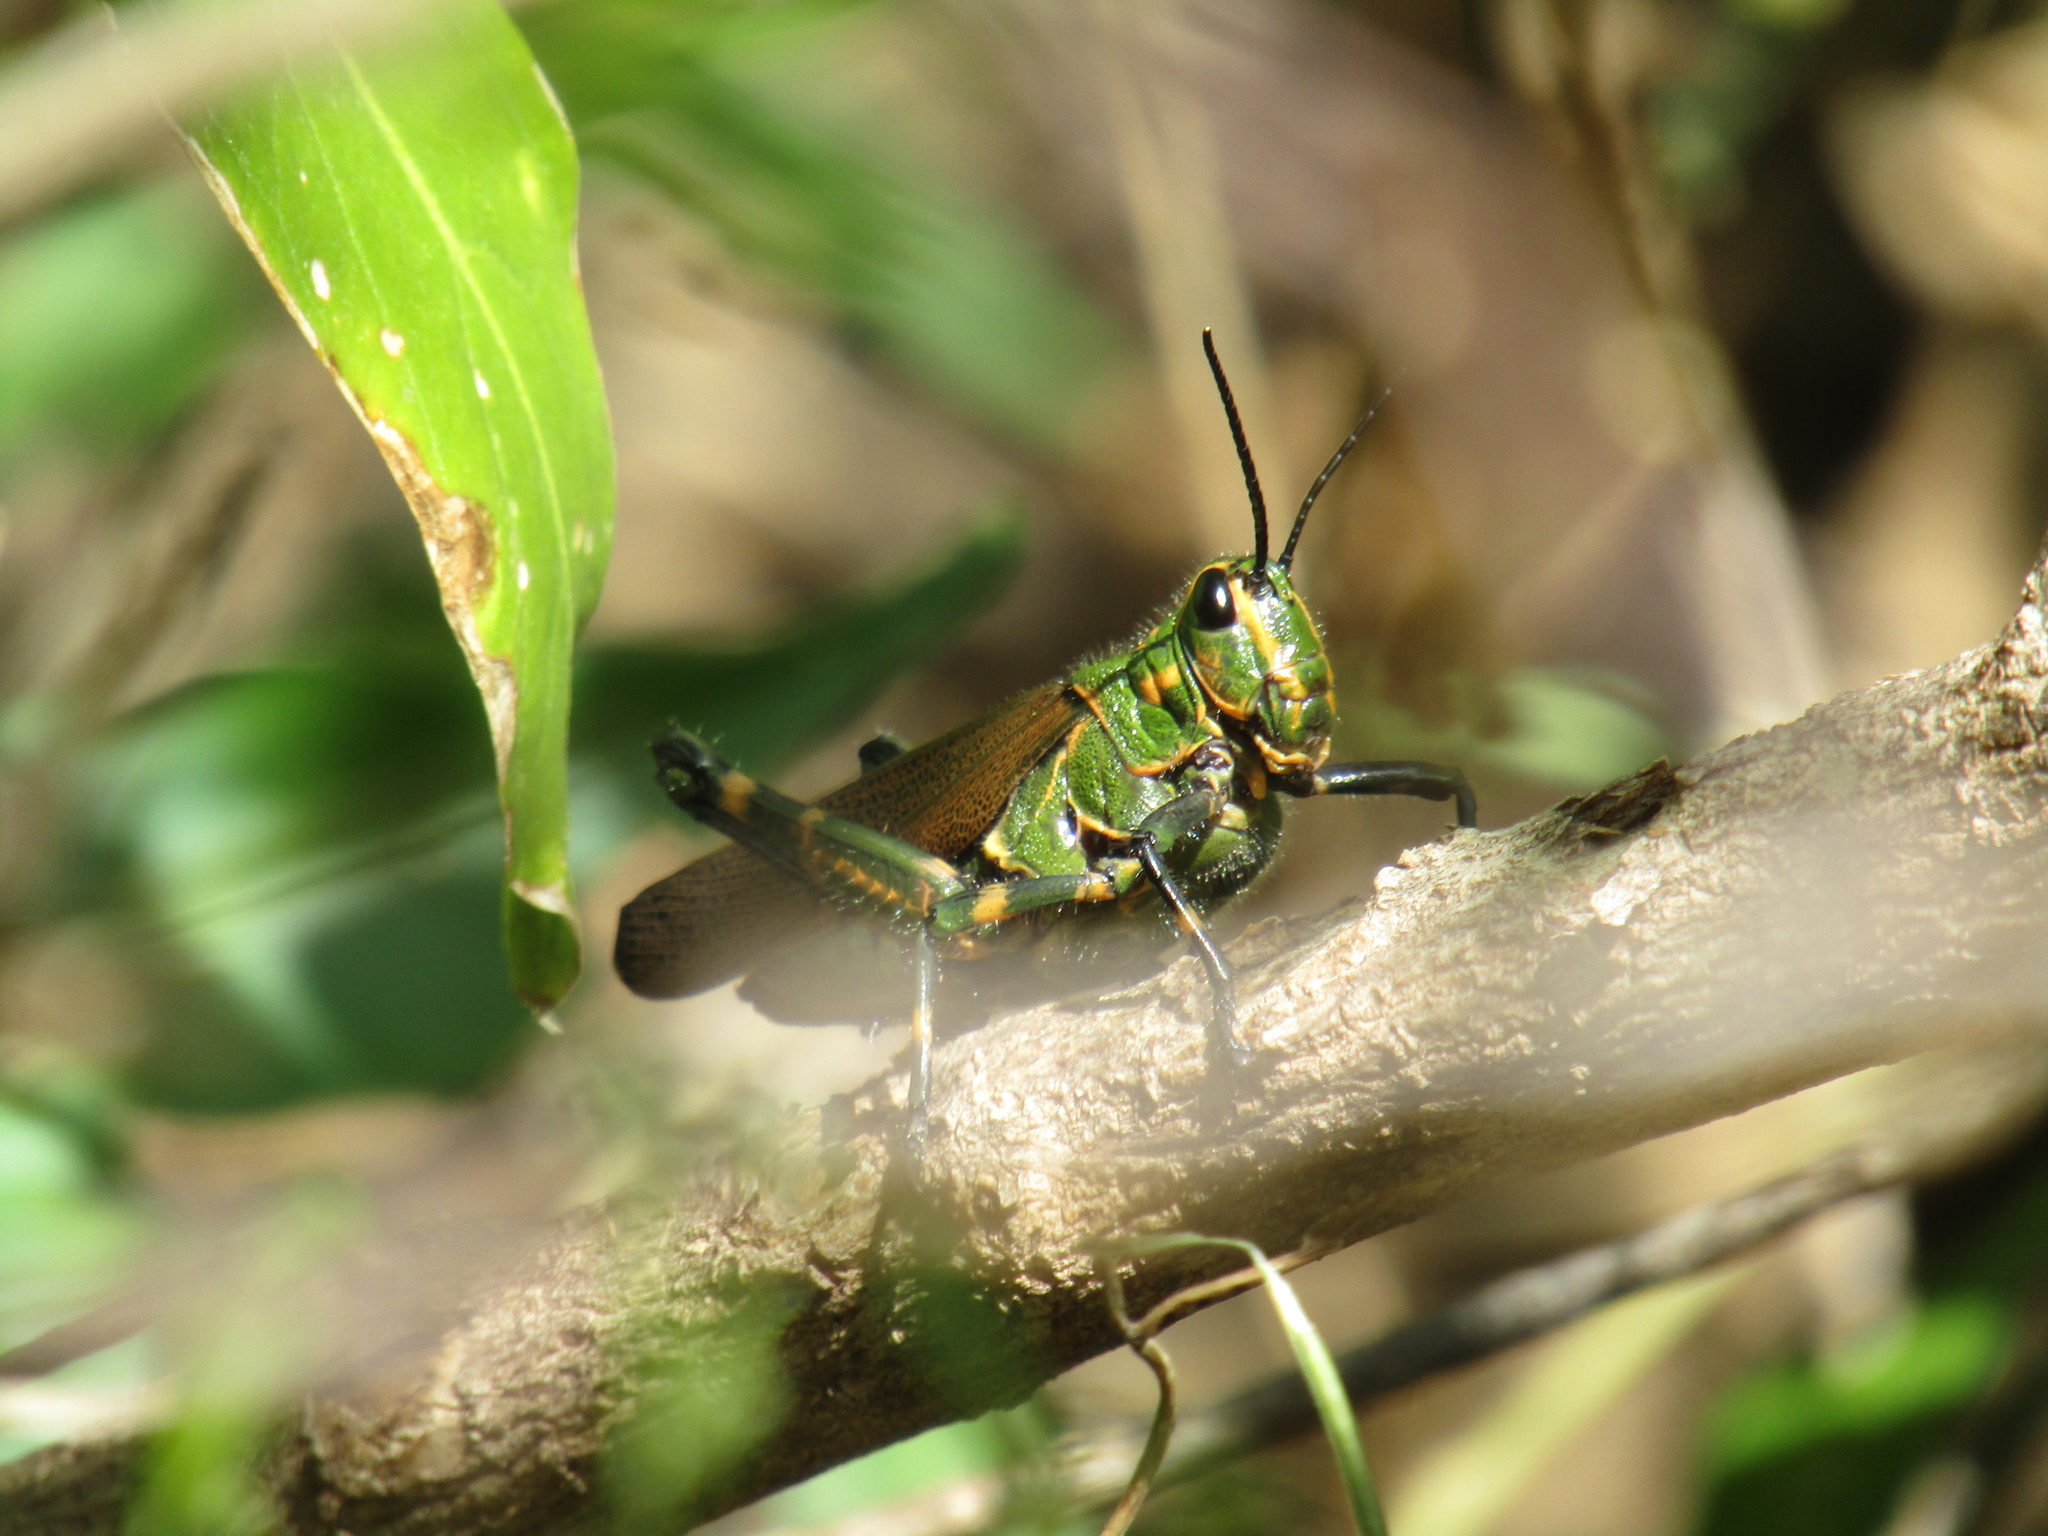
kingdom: Animalia
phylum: Arthropoda
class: Insecta
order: Orthoptera
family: Romaleidae
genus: Chromacris
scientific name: Chromacris speciosa
